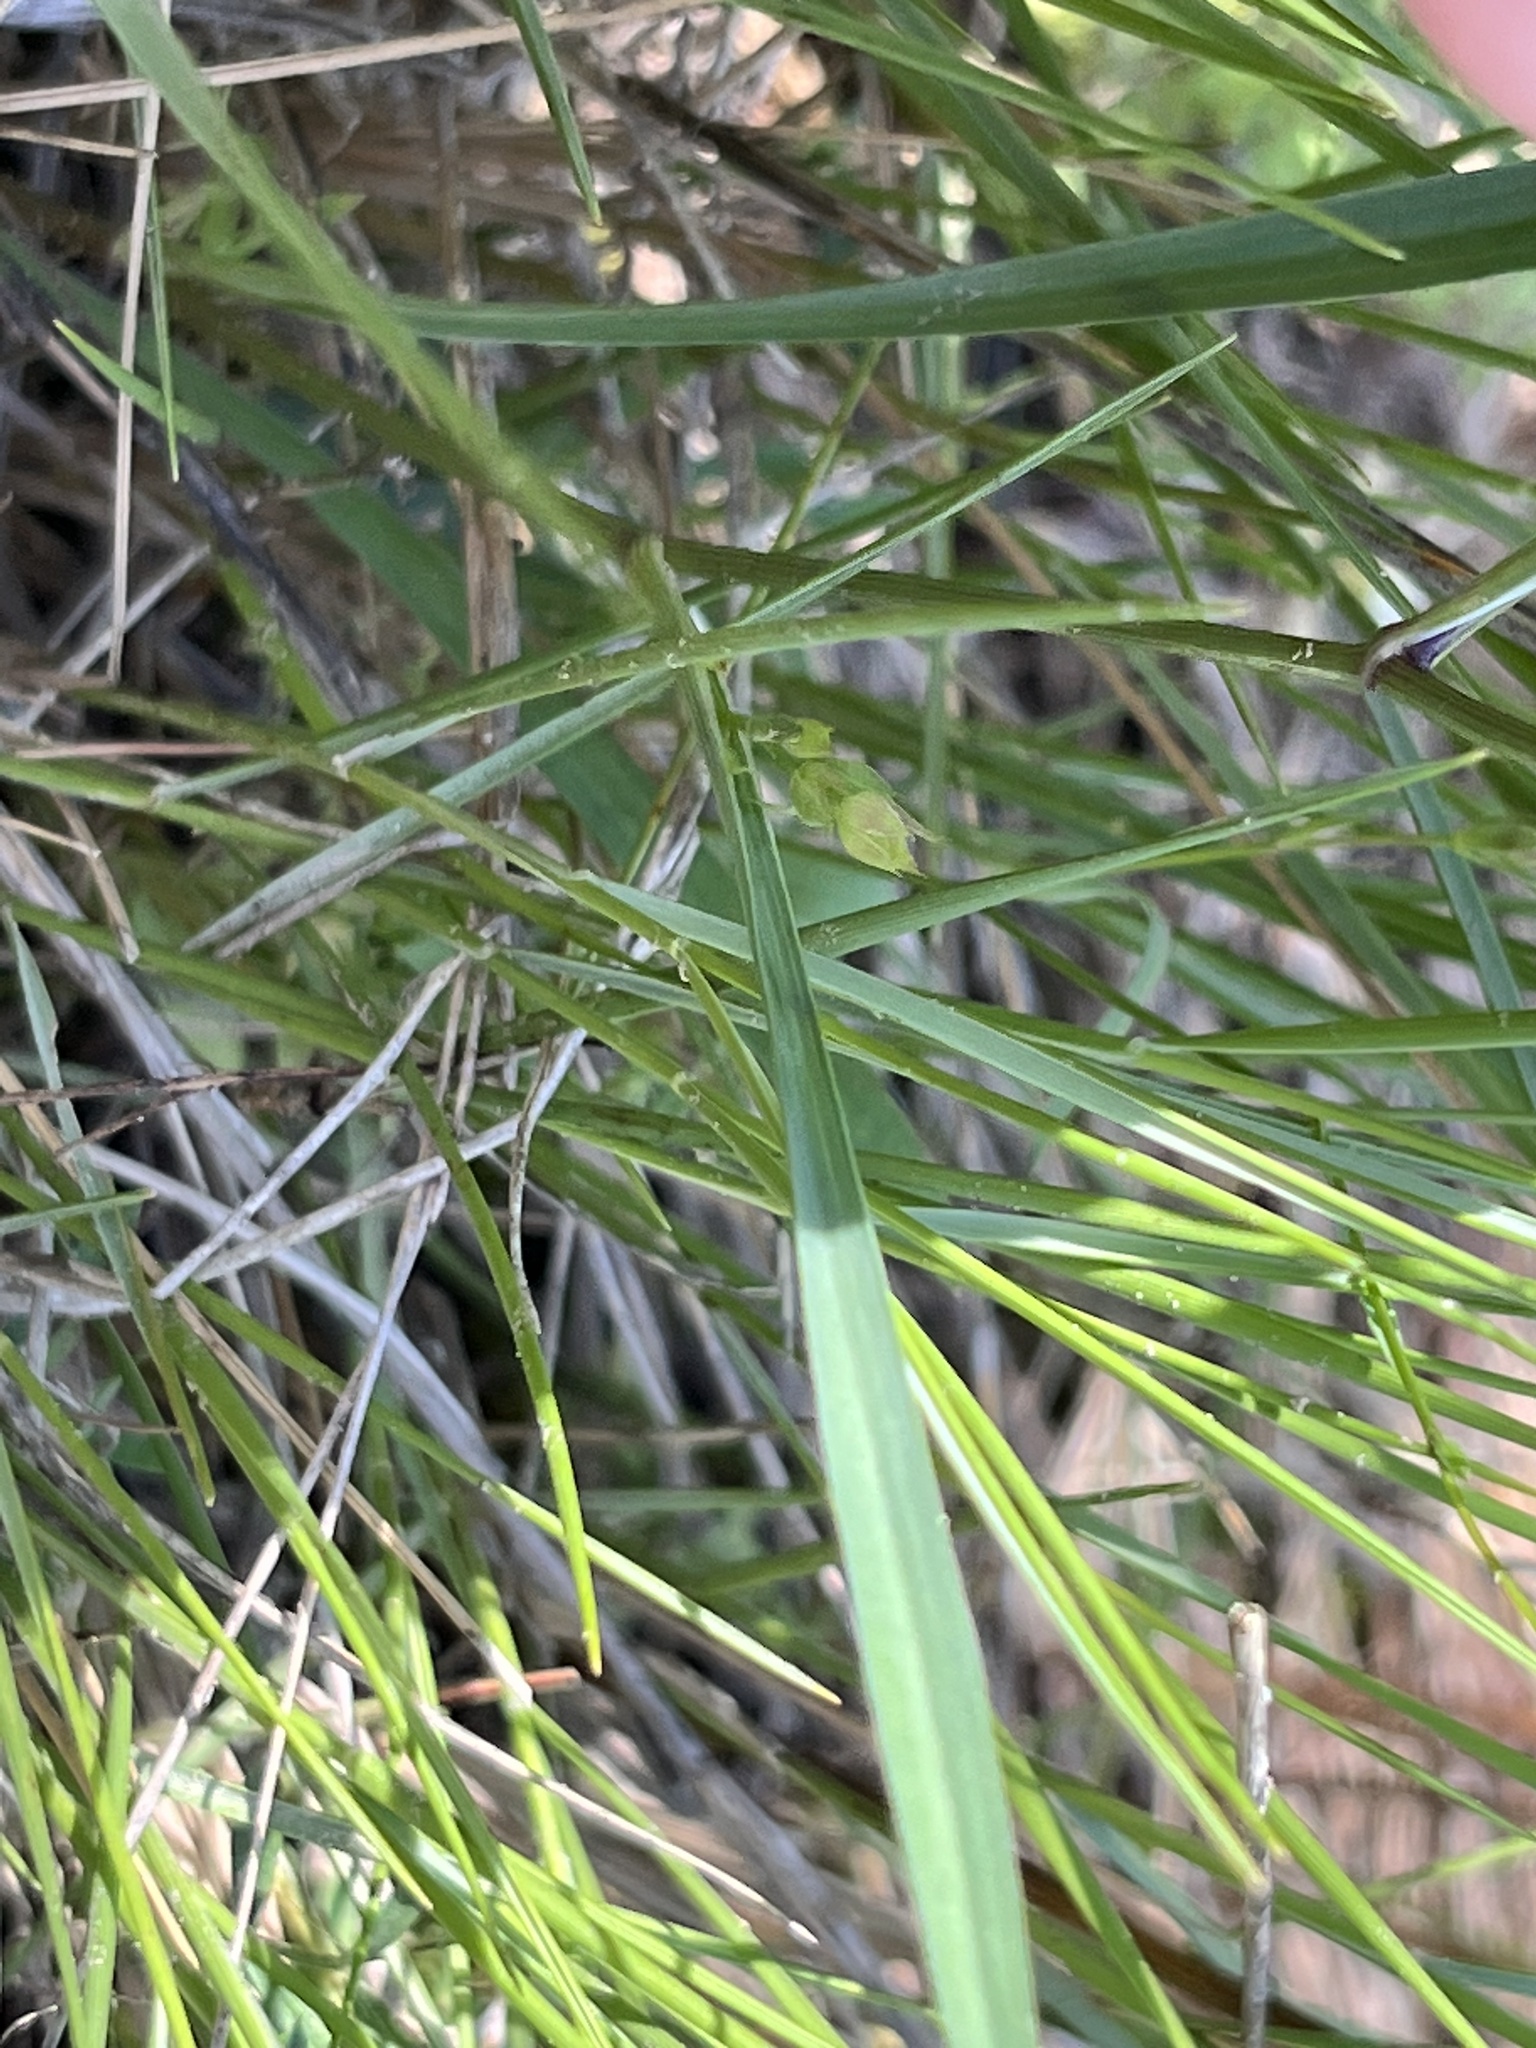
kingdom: Plantae
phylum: Tracheophyta
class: Magnoliopsida
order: Apiales
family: Apiaceae
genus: Bupleurum
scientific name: Bupleurum baldense
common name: Small hare's-ear
